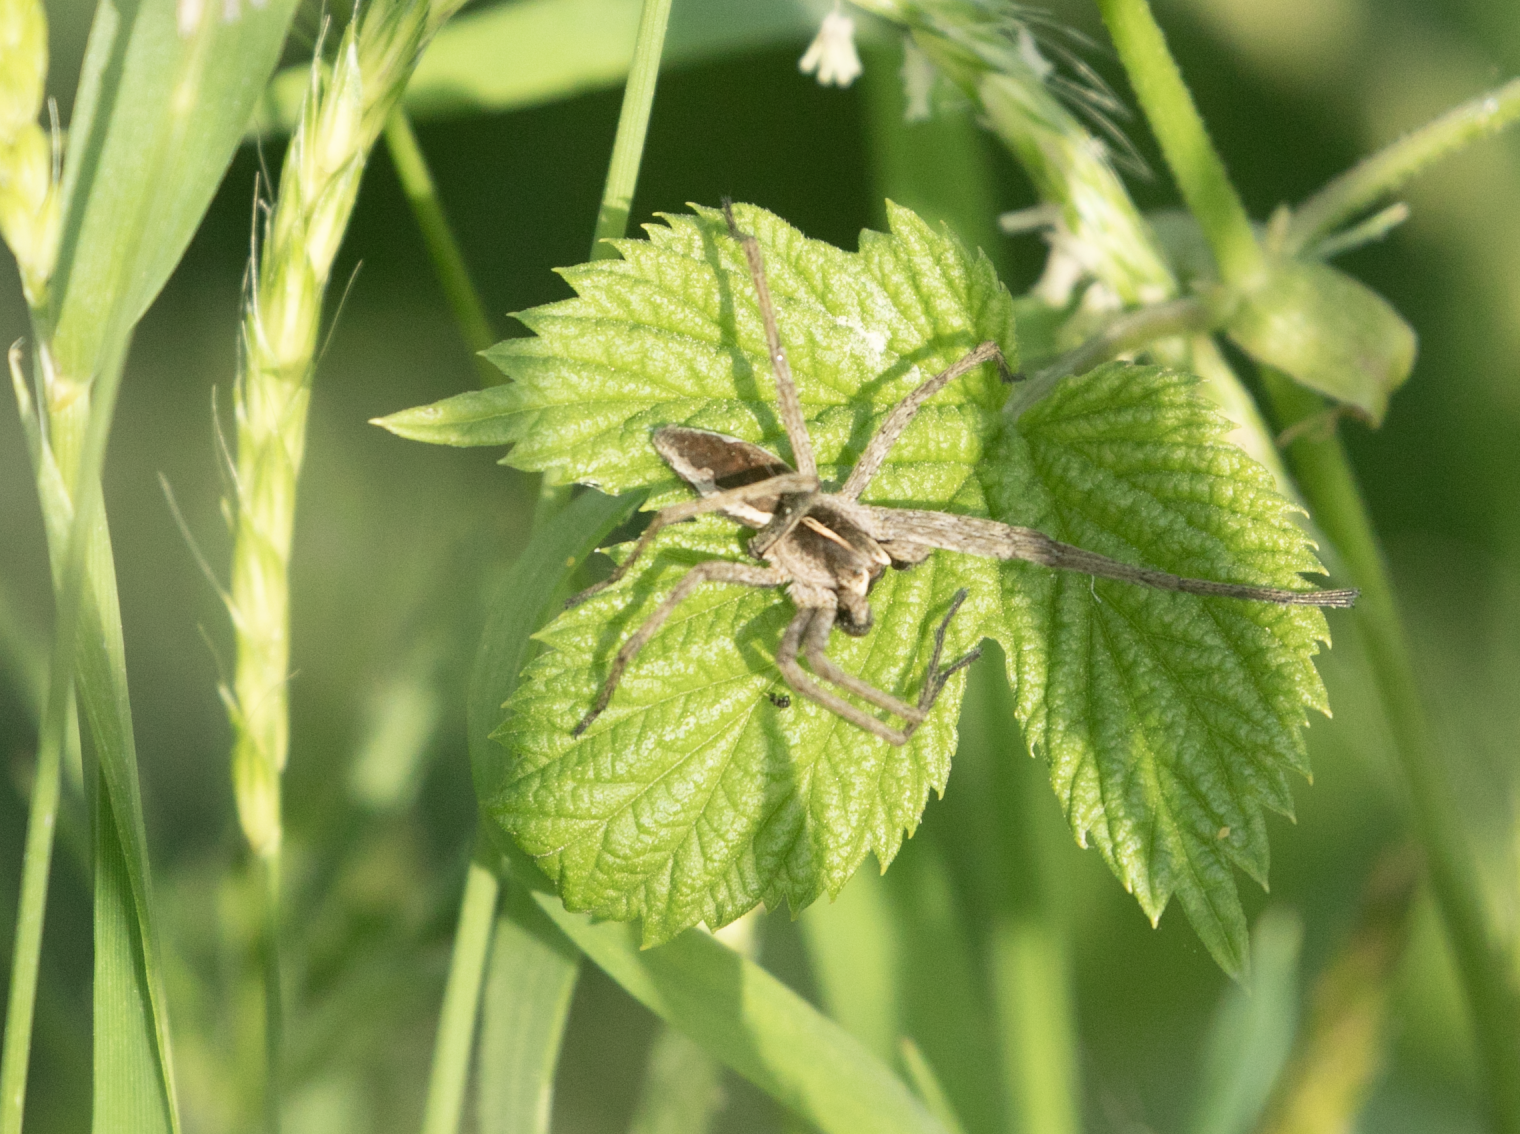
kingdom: Animalia
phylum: Arthropoda
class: Arachnida
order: Araneae
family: Pisauridae
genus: Pisaura
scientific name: Pisaura mirabilis
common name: Tent spider
